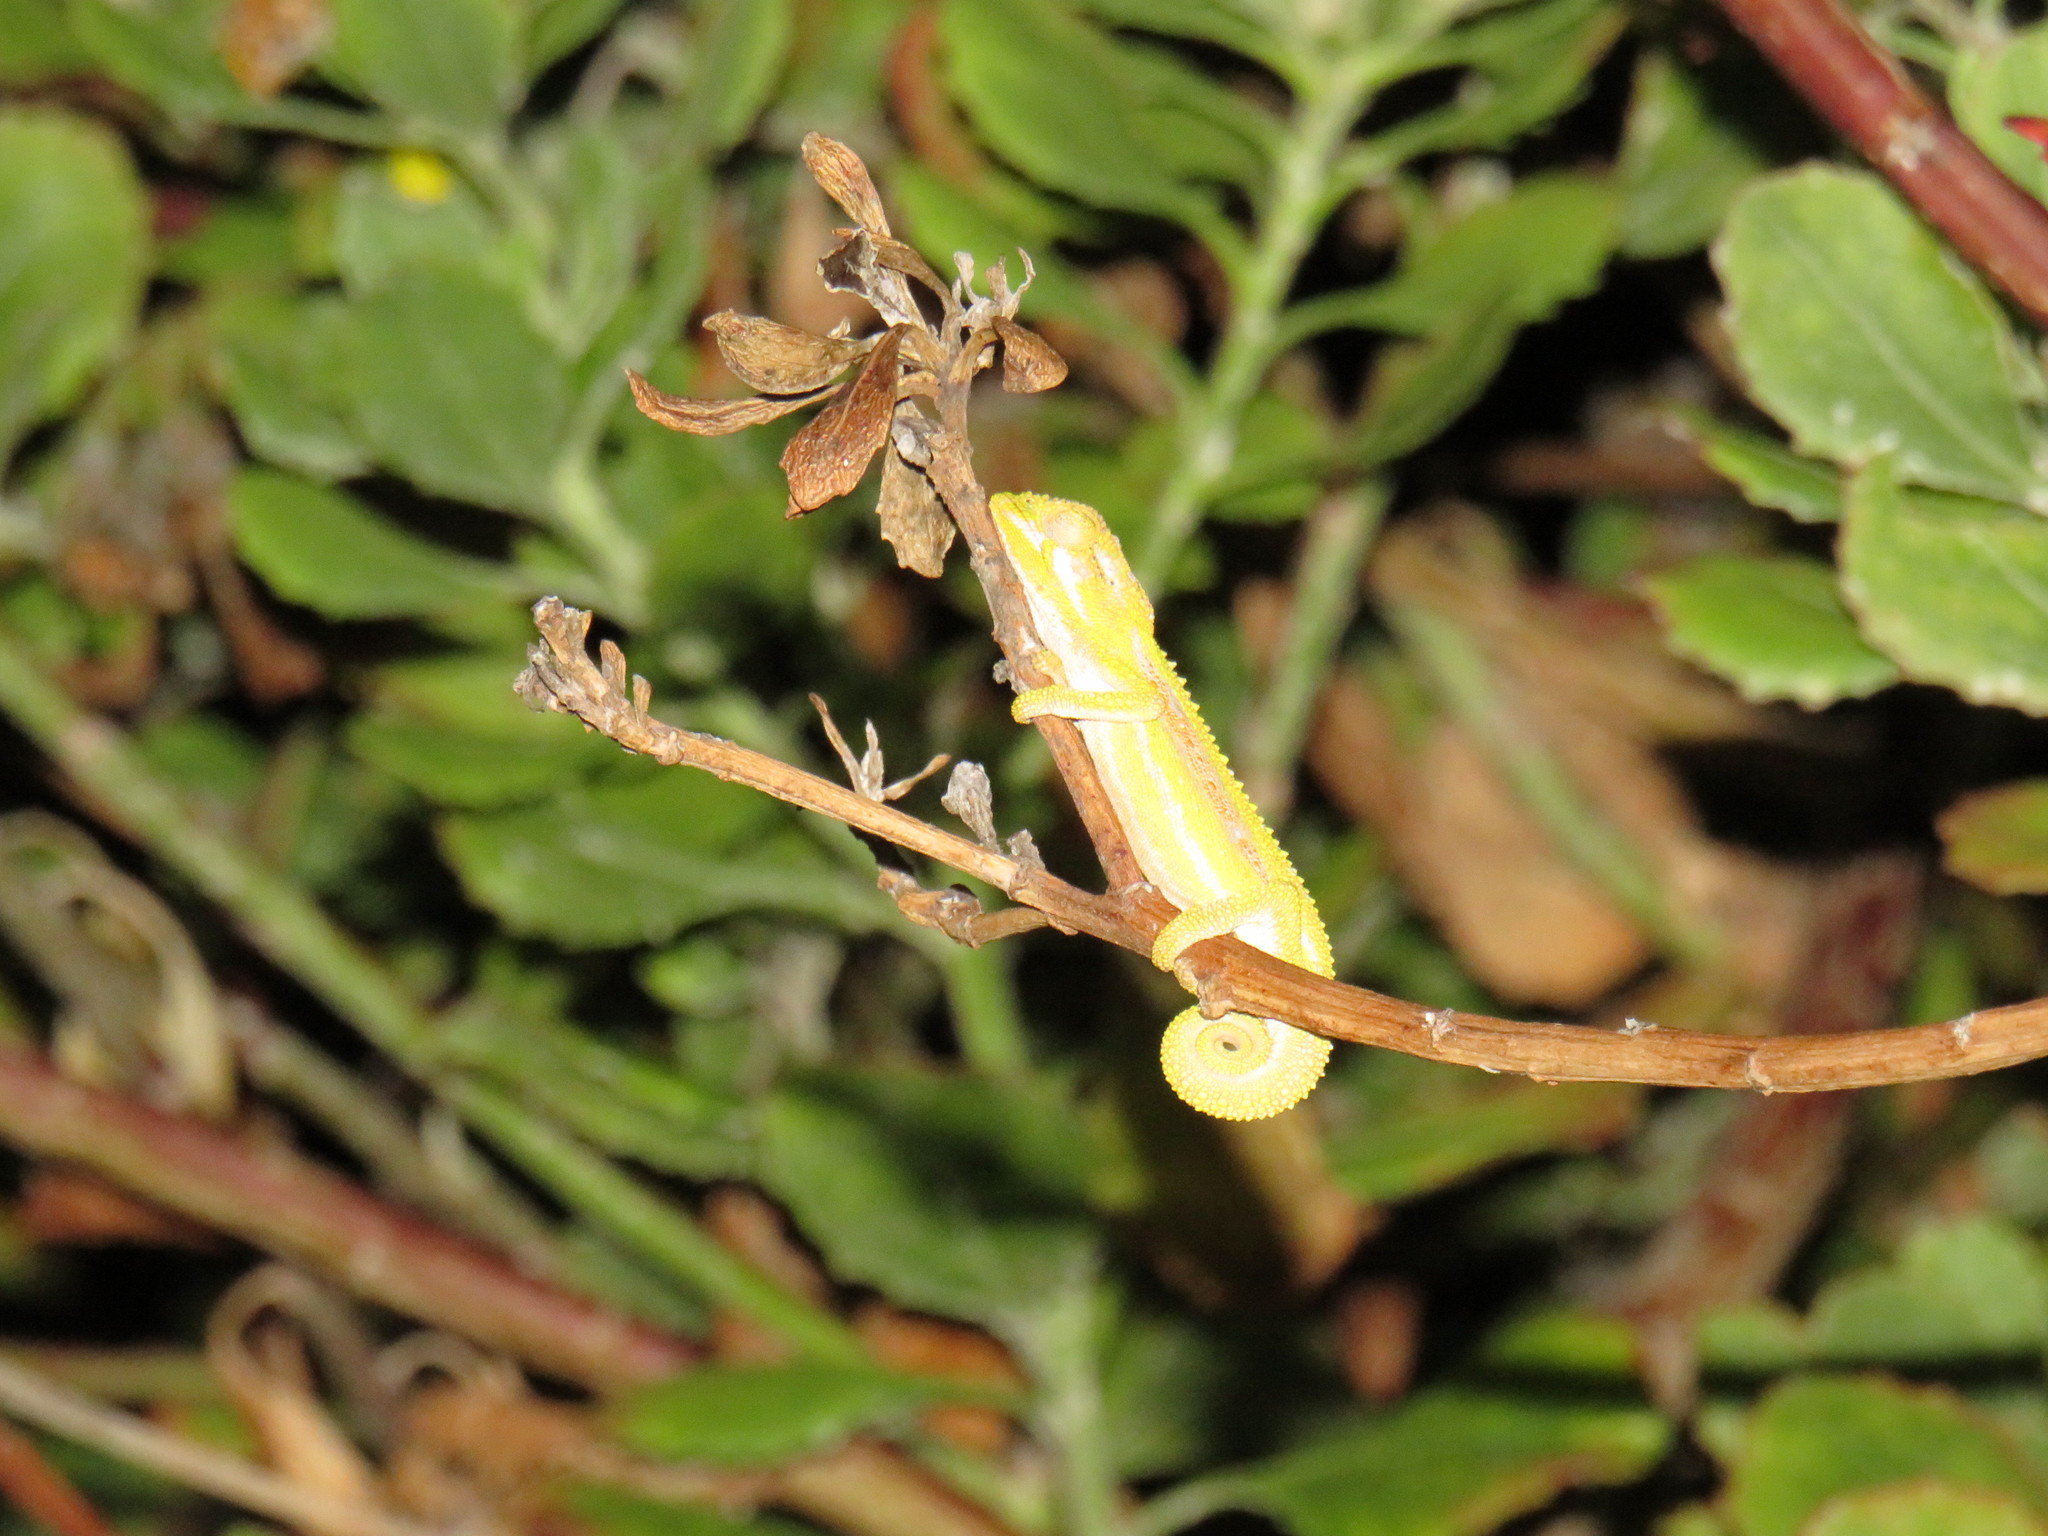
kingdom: Animalia
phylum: Chordata
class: Squamata
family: Chamaeleonidae
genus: Bradypodion
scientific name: Bradypodion pumilum
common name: Cape dwarf chameleon
